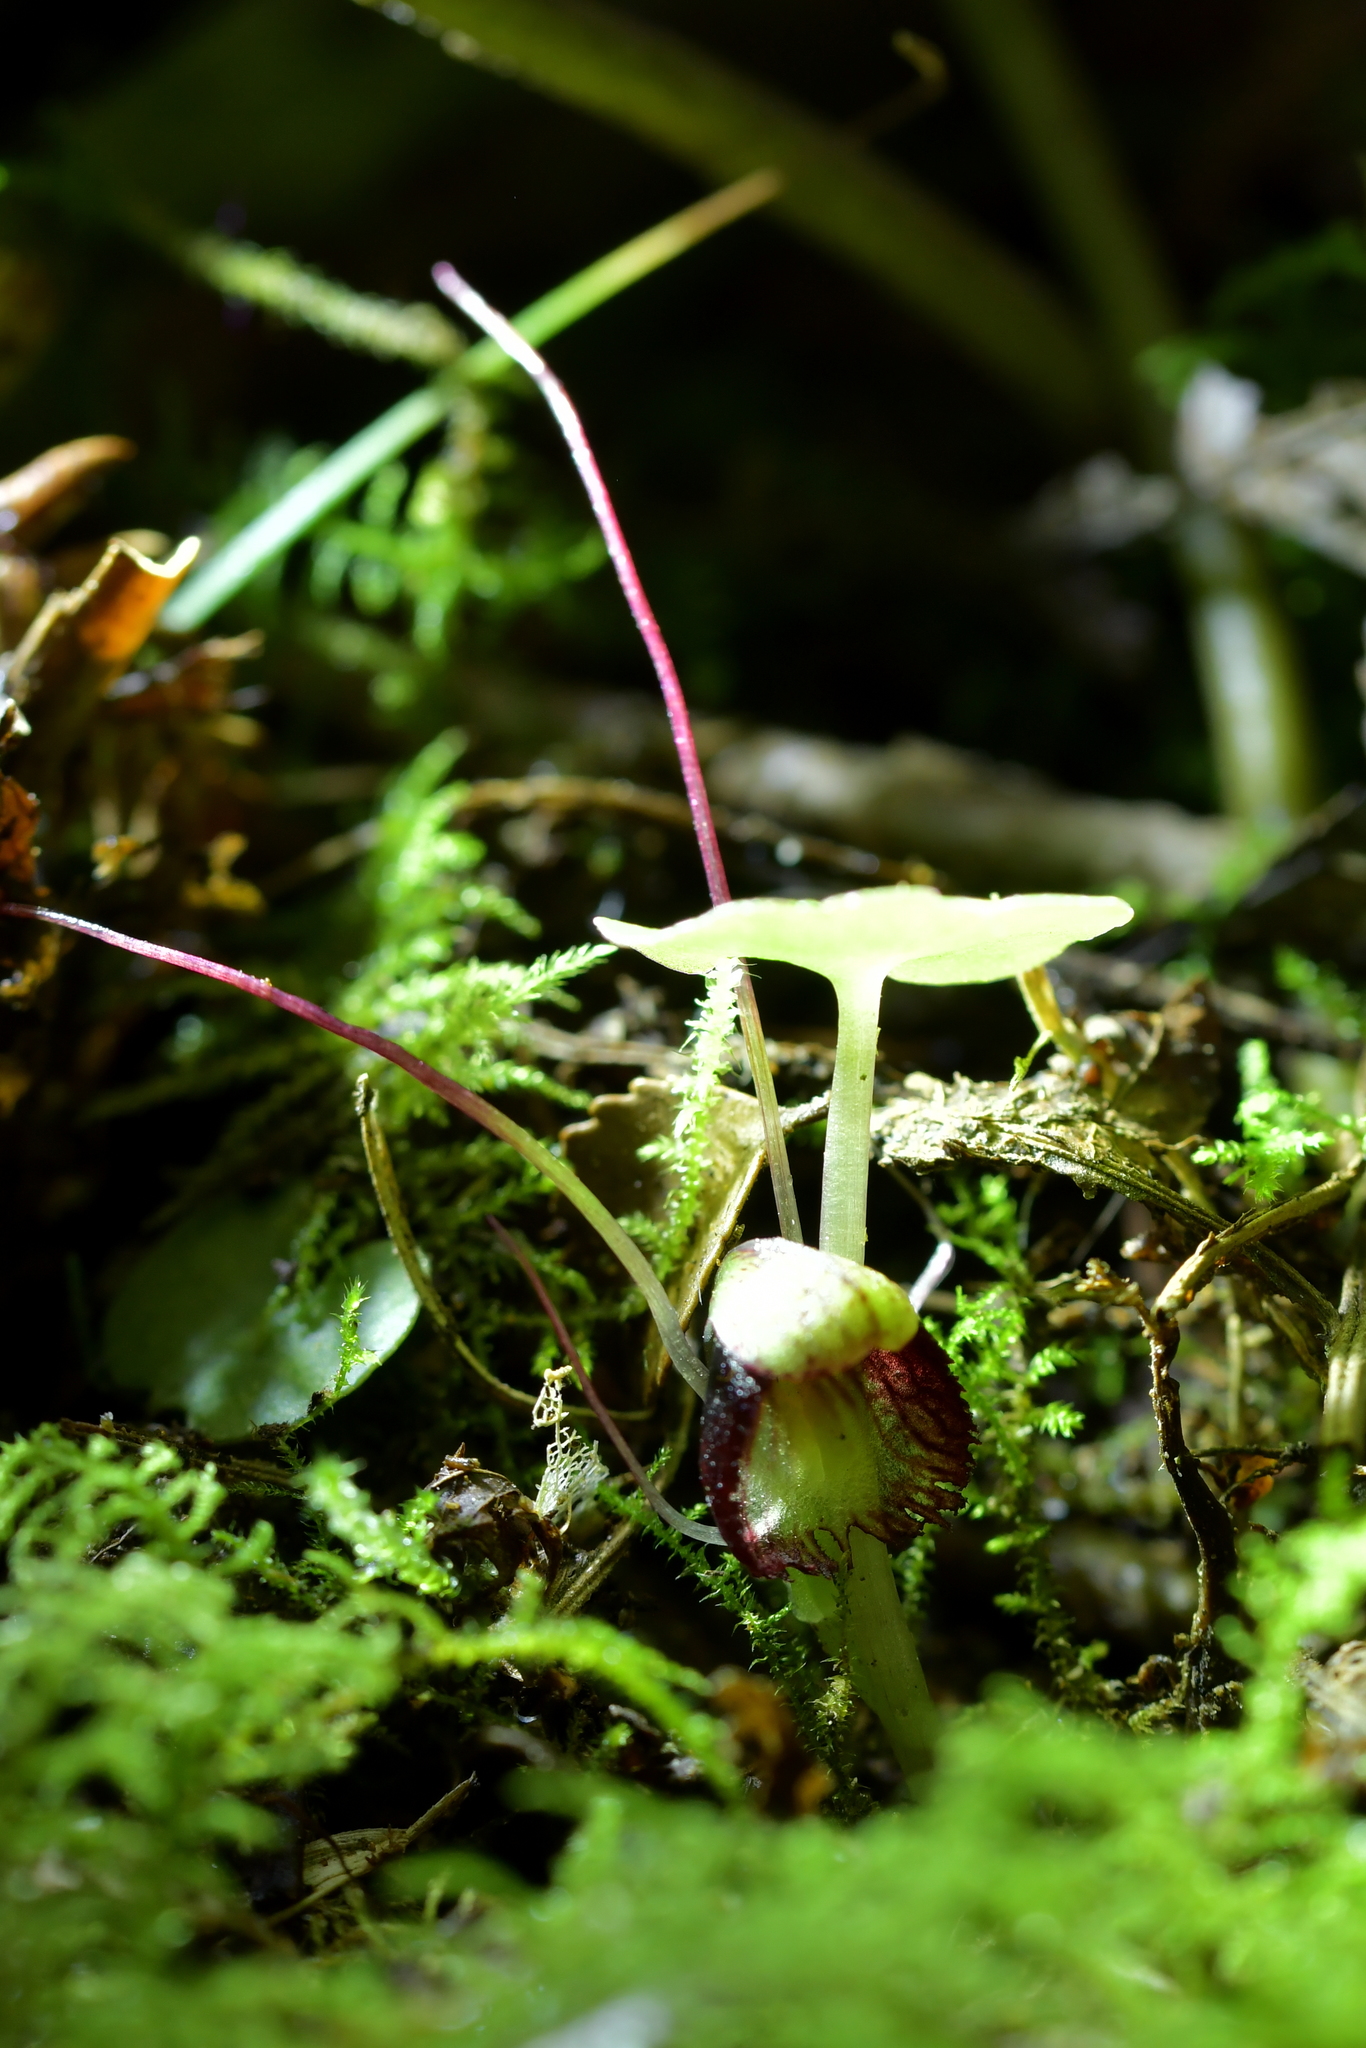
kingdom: Plantae
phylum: Tracheophyta
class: Liliopsida
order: Asparagales
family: Orchidaceae
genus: Corybas
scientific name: Corybas trilobus
